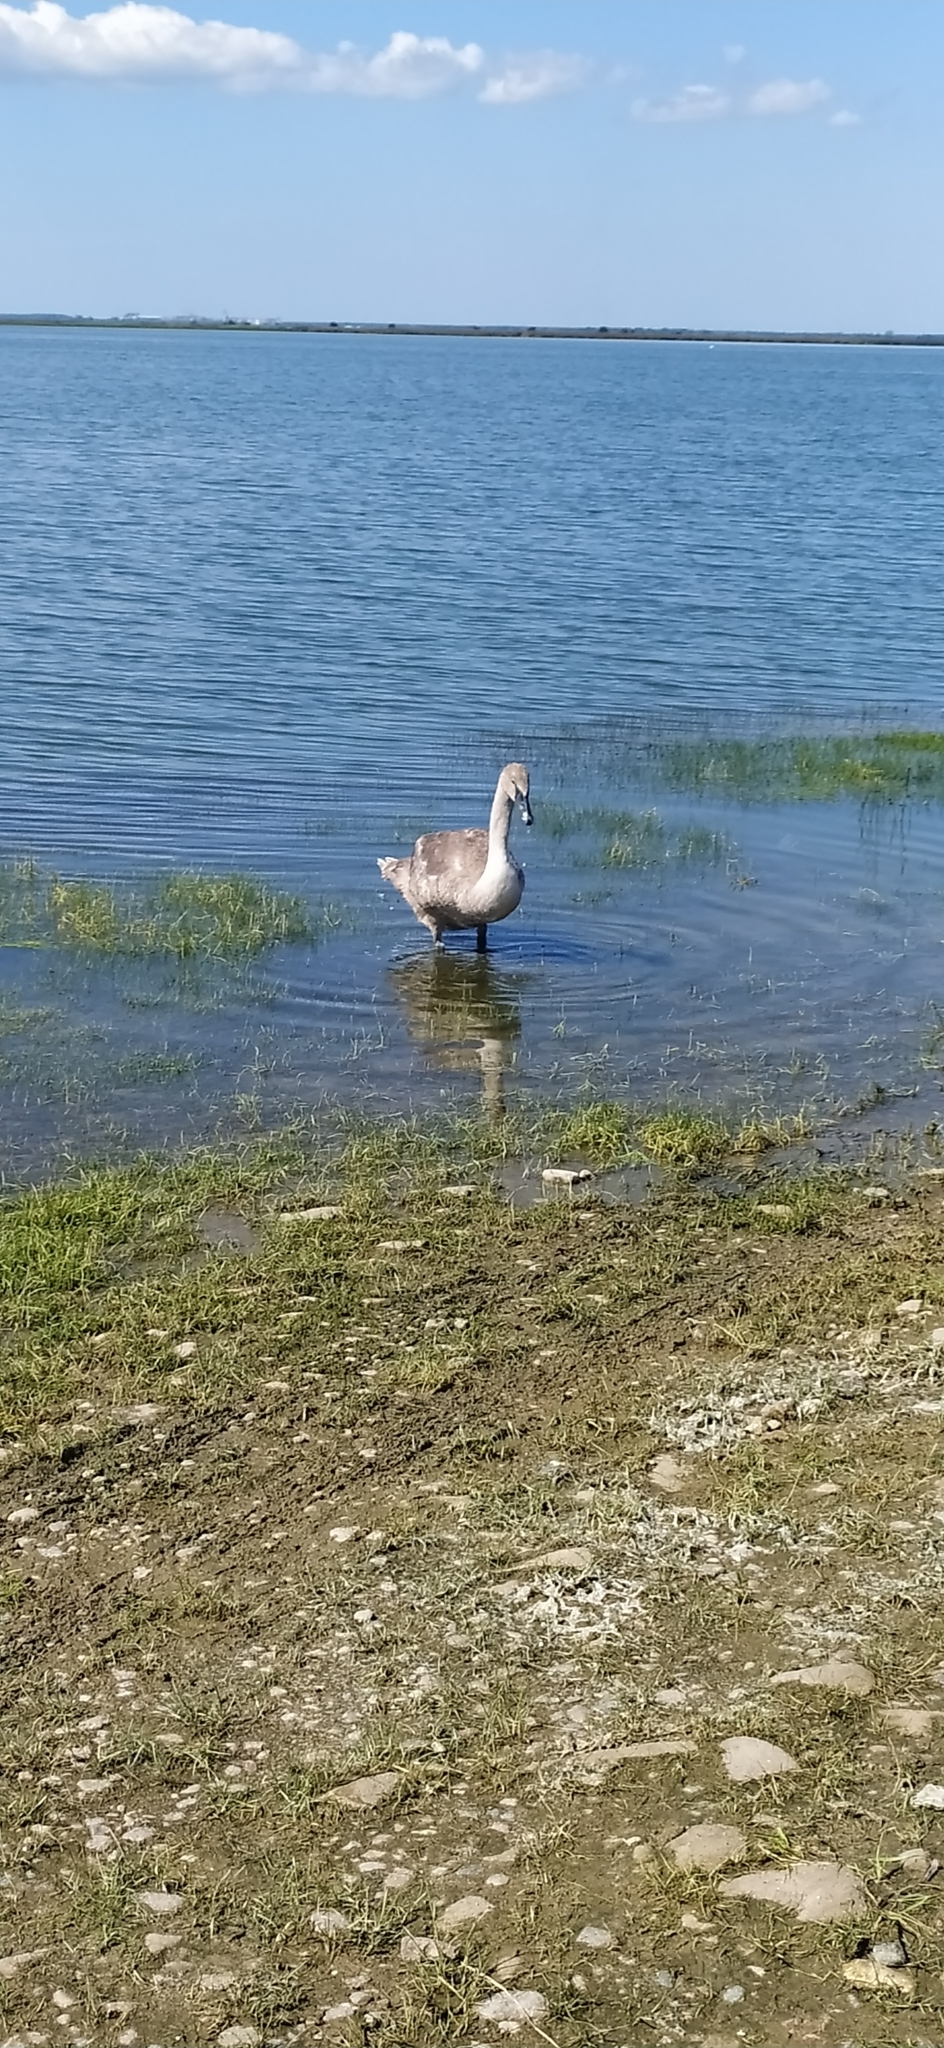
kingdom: Animalia
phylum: Chordata
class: Aves
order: Anseriformes
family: Anatidae
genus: Cygnus
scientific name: Cygnus olor
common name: Mute swan
